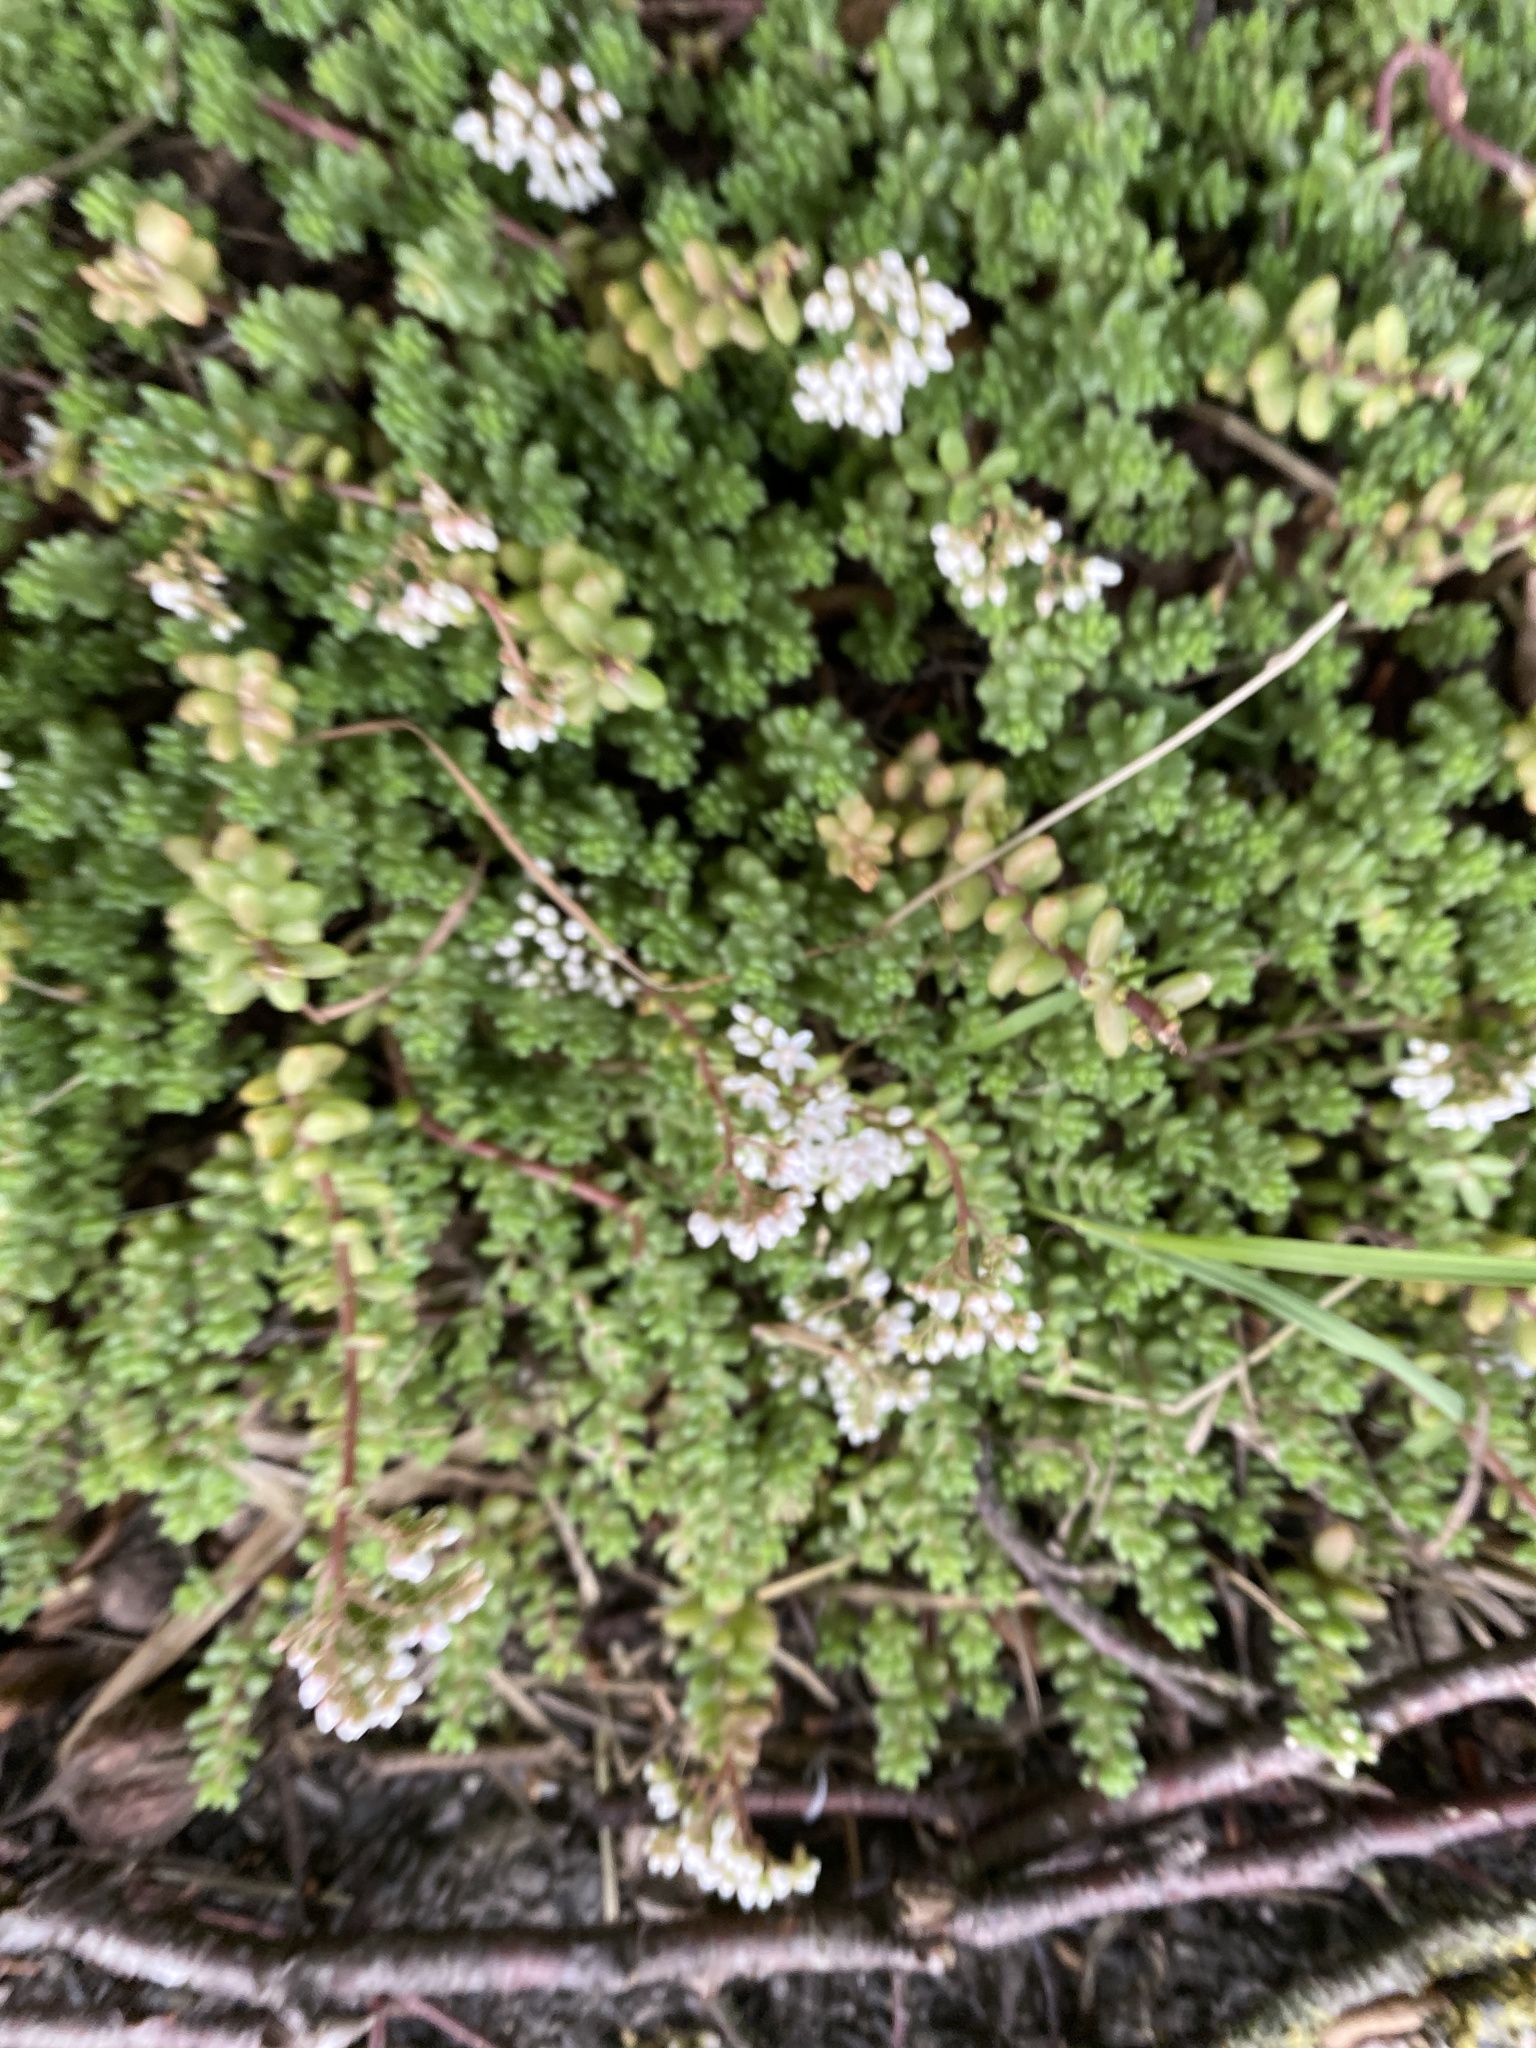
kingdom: Plantae
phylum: Tracheophyta
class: Magnoliopsida
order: Saxifragales
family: Crassulaceae
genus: Sedum
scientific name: Sedum album
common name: White stonecrop
